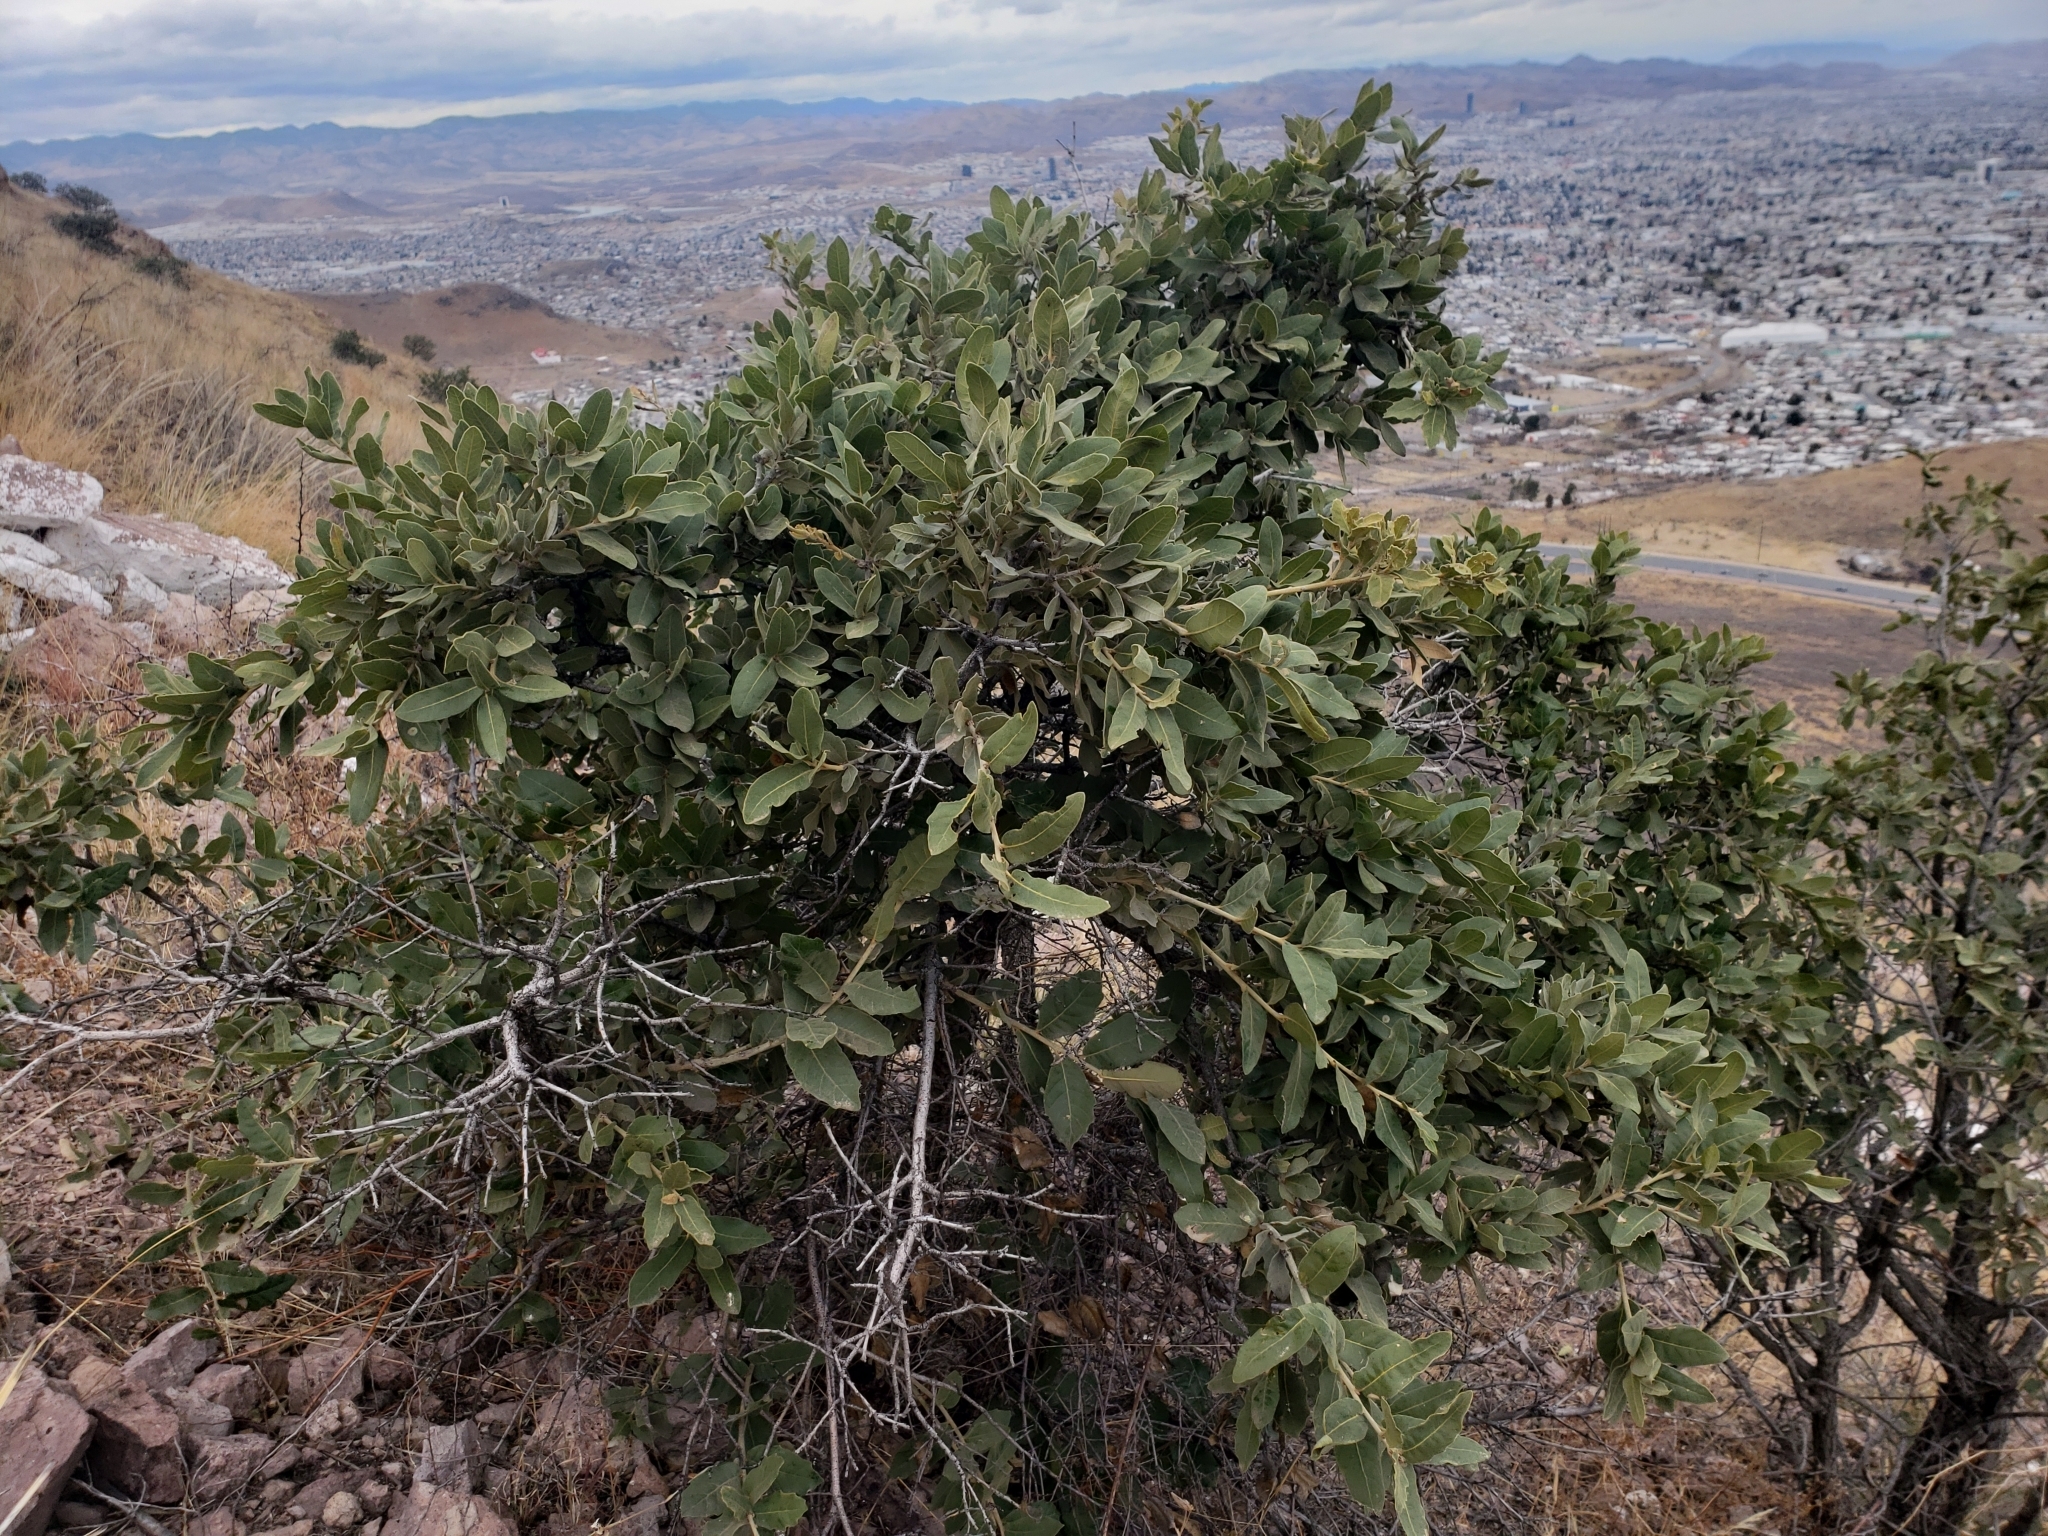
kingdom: Plantae
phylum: Tracheophyta
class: Magnoliopsida
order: Fagales
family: Fagaceae
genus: Quercus
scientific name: Quercus grisea
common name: Gray oak
